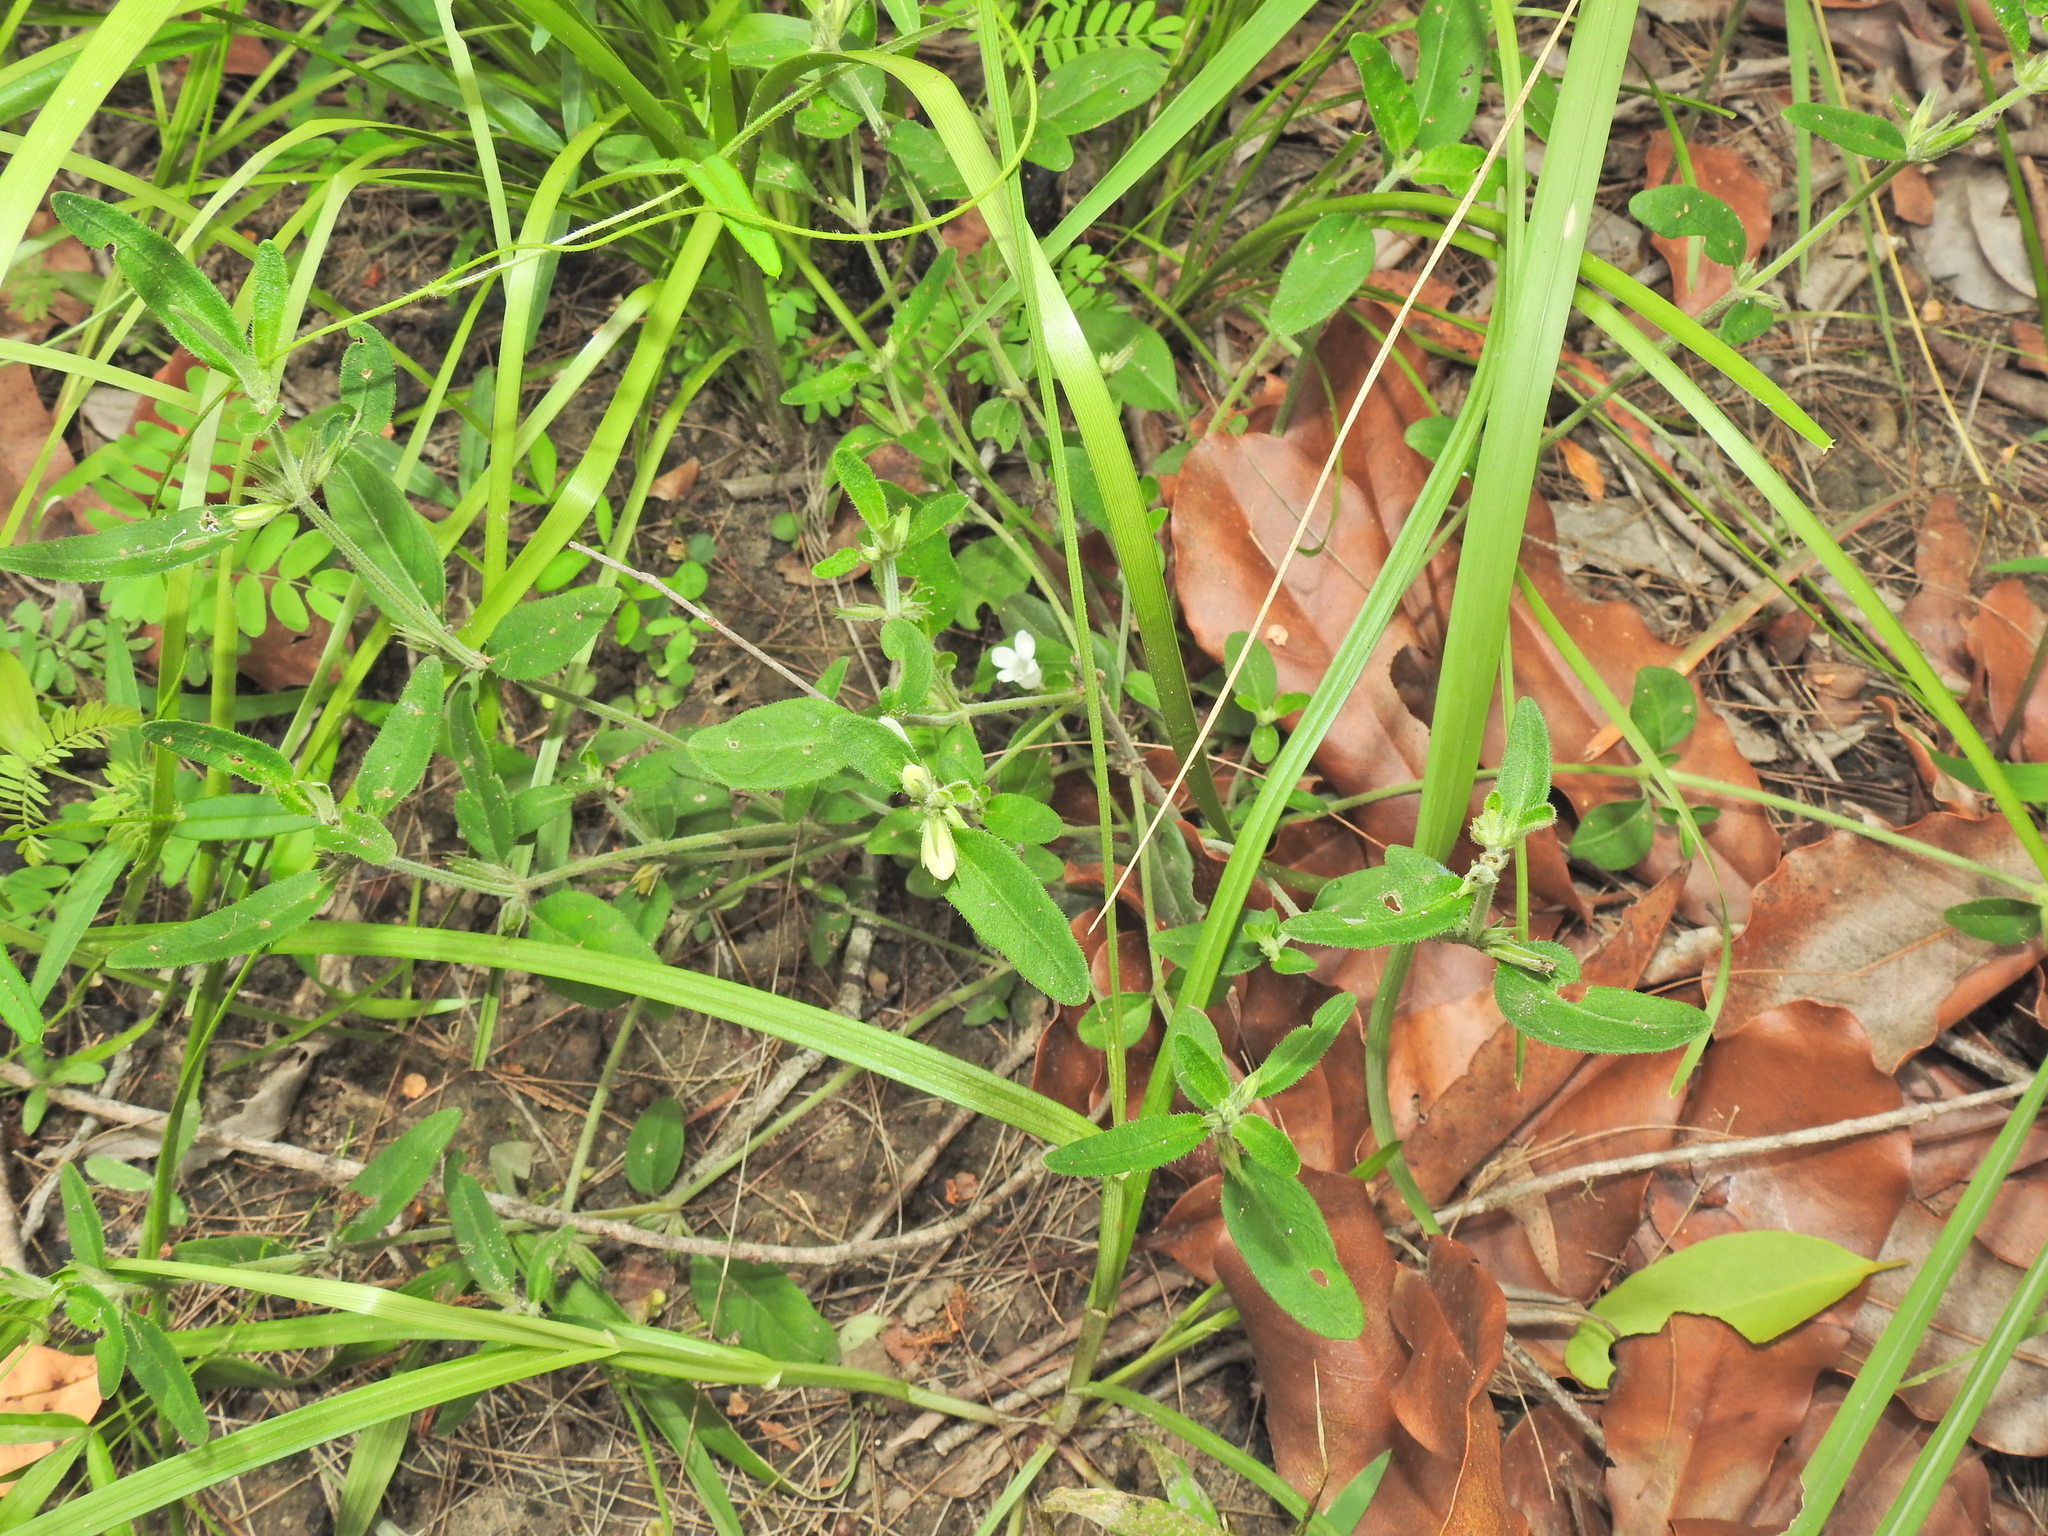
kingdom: Plantae
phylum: Tracheophyta
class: Magnoliopsida
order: Lamiales
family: Acanthaceae
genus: Brunoniella
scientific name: Brunoniella australis
